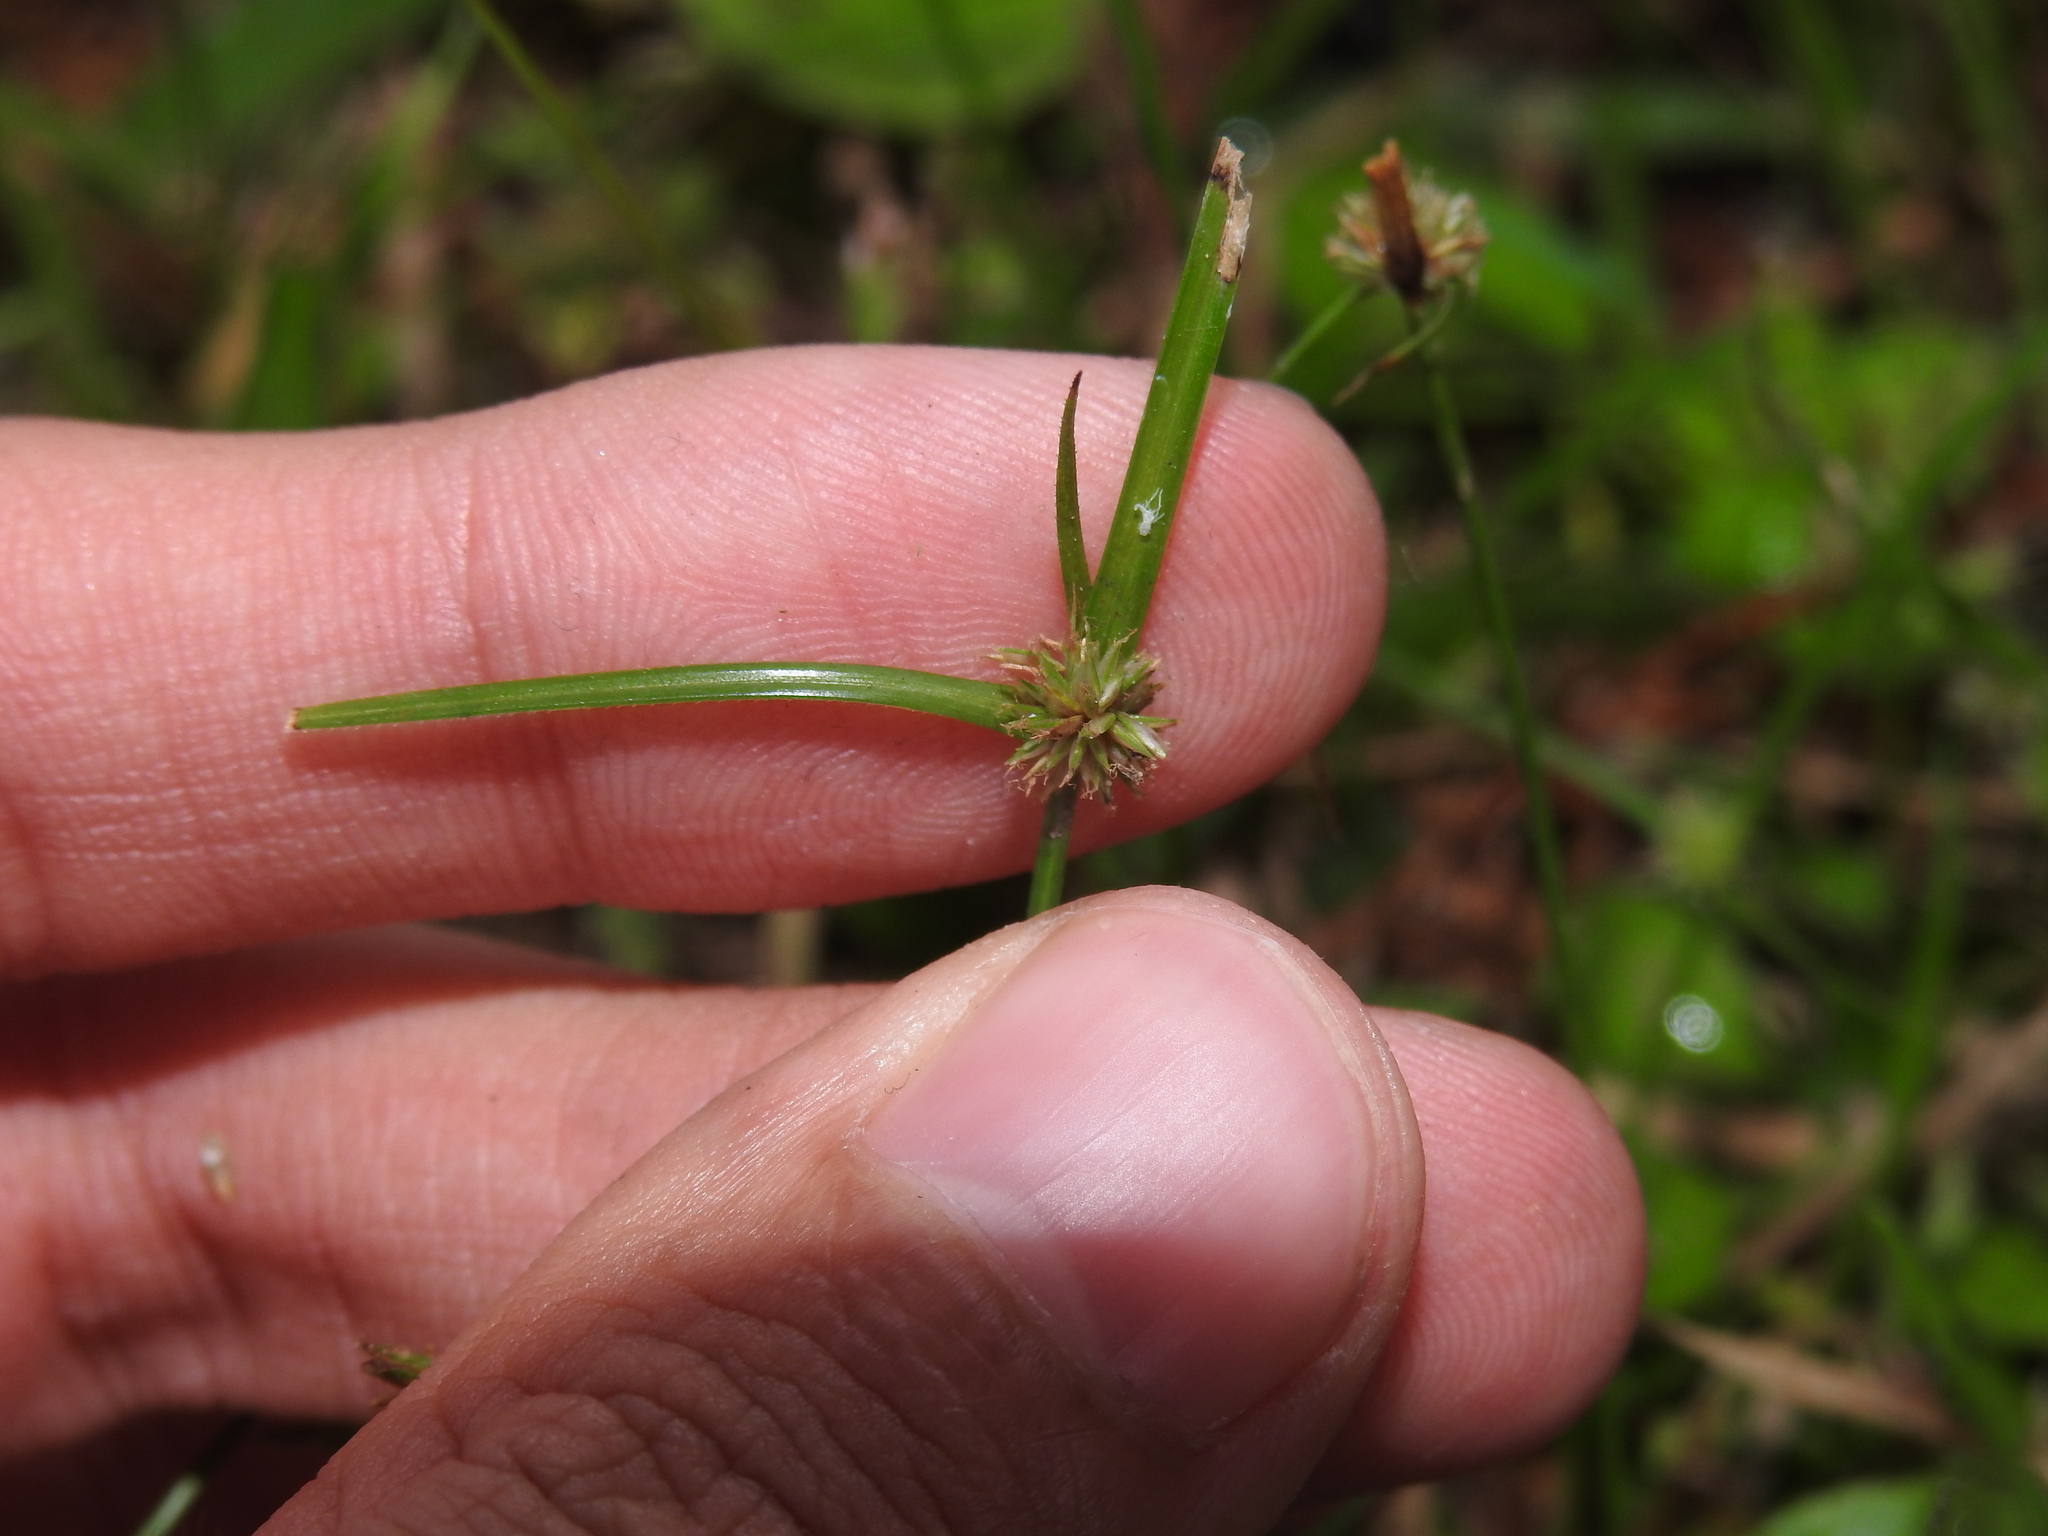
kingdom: Plantae
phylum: Tracheophyta
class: Liliopsida
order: Poales
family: Cyperaceae
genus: Cyperus
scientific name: Cyperus brevifolius
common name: Globe kyllinga
